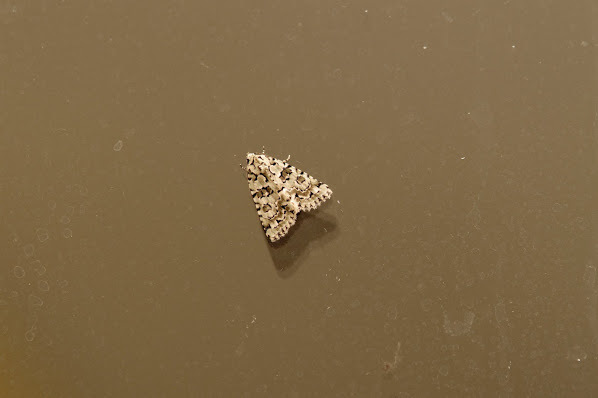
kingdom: Animalia
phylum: Arthropoda
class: Insecta
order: Lepidoptera
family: Noctuidae
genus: Nyctobrya
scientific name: Nyctobrya muralis
